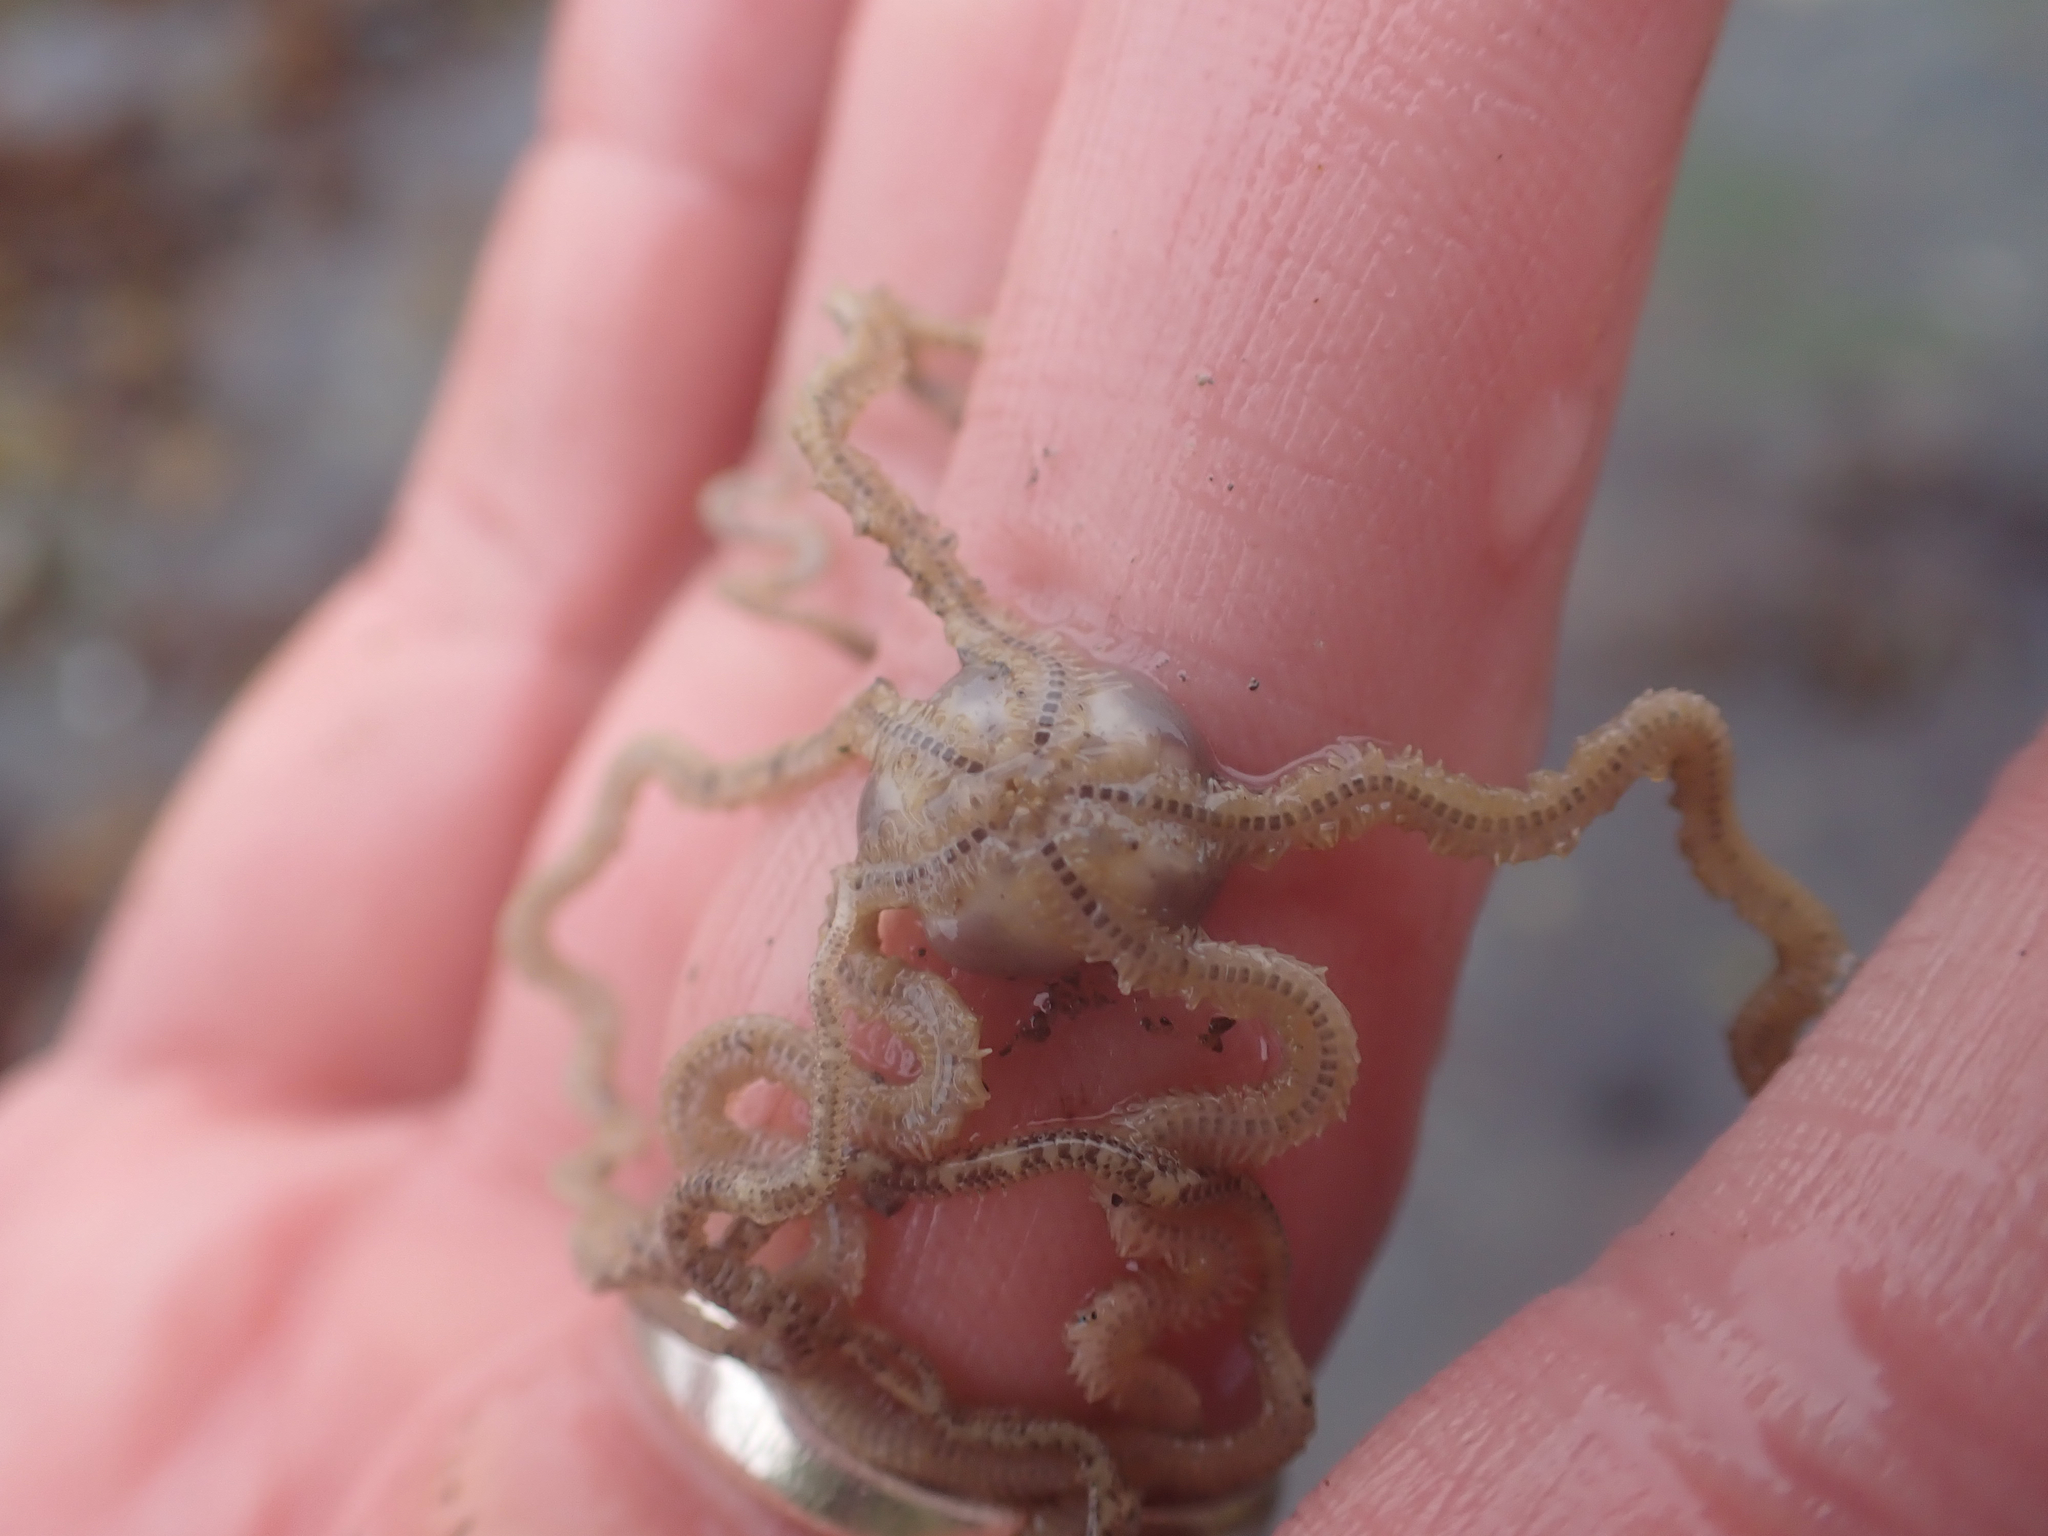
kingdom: Animalia
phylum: Echinodermata
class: Ophiuroidea
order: Amphilepidida
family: Amphiuridae
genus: Amphiodia
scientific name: Amphiodia occidentalis
